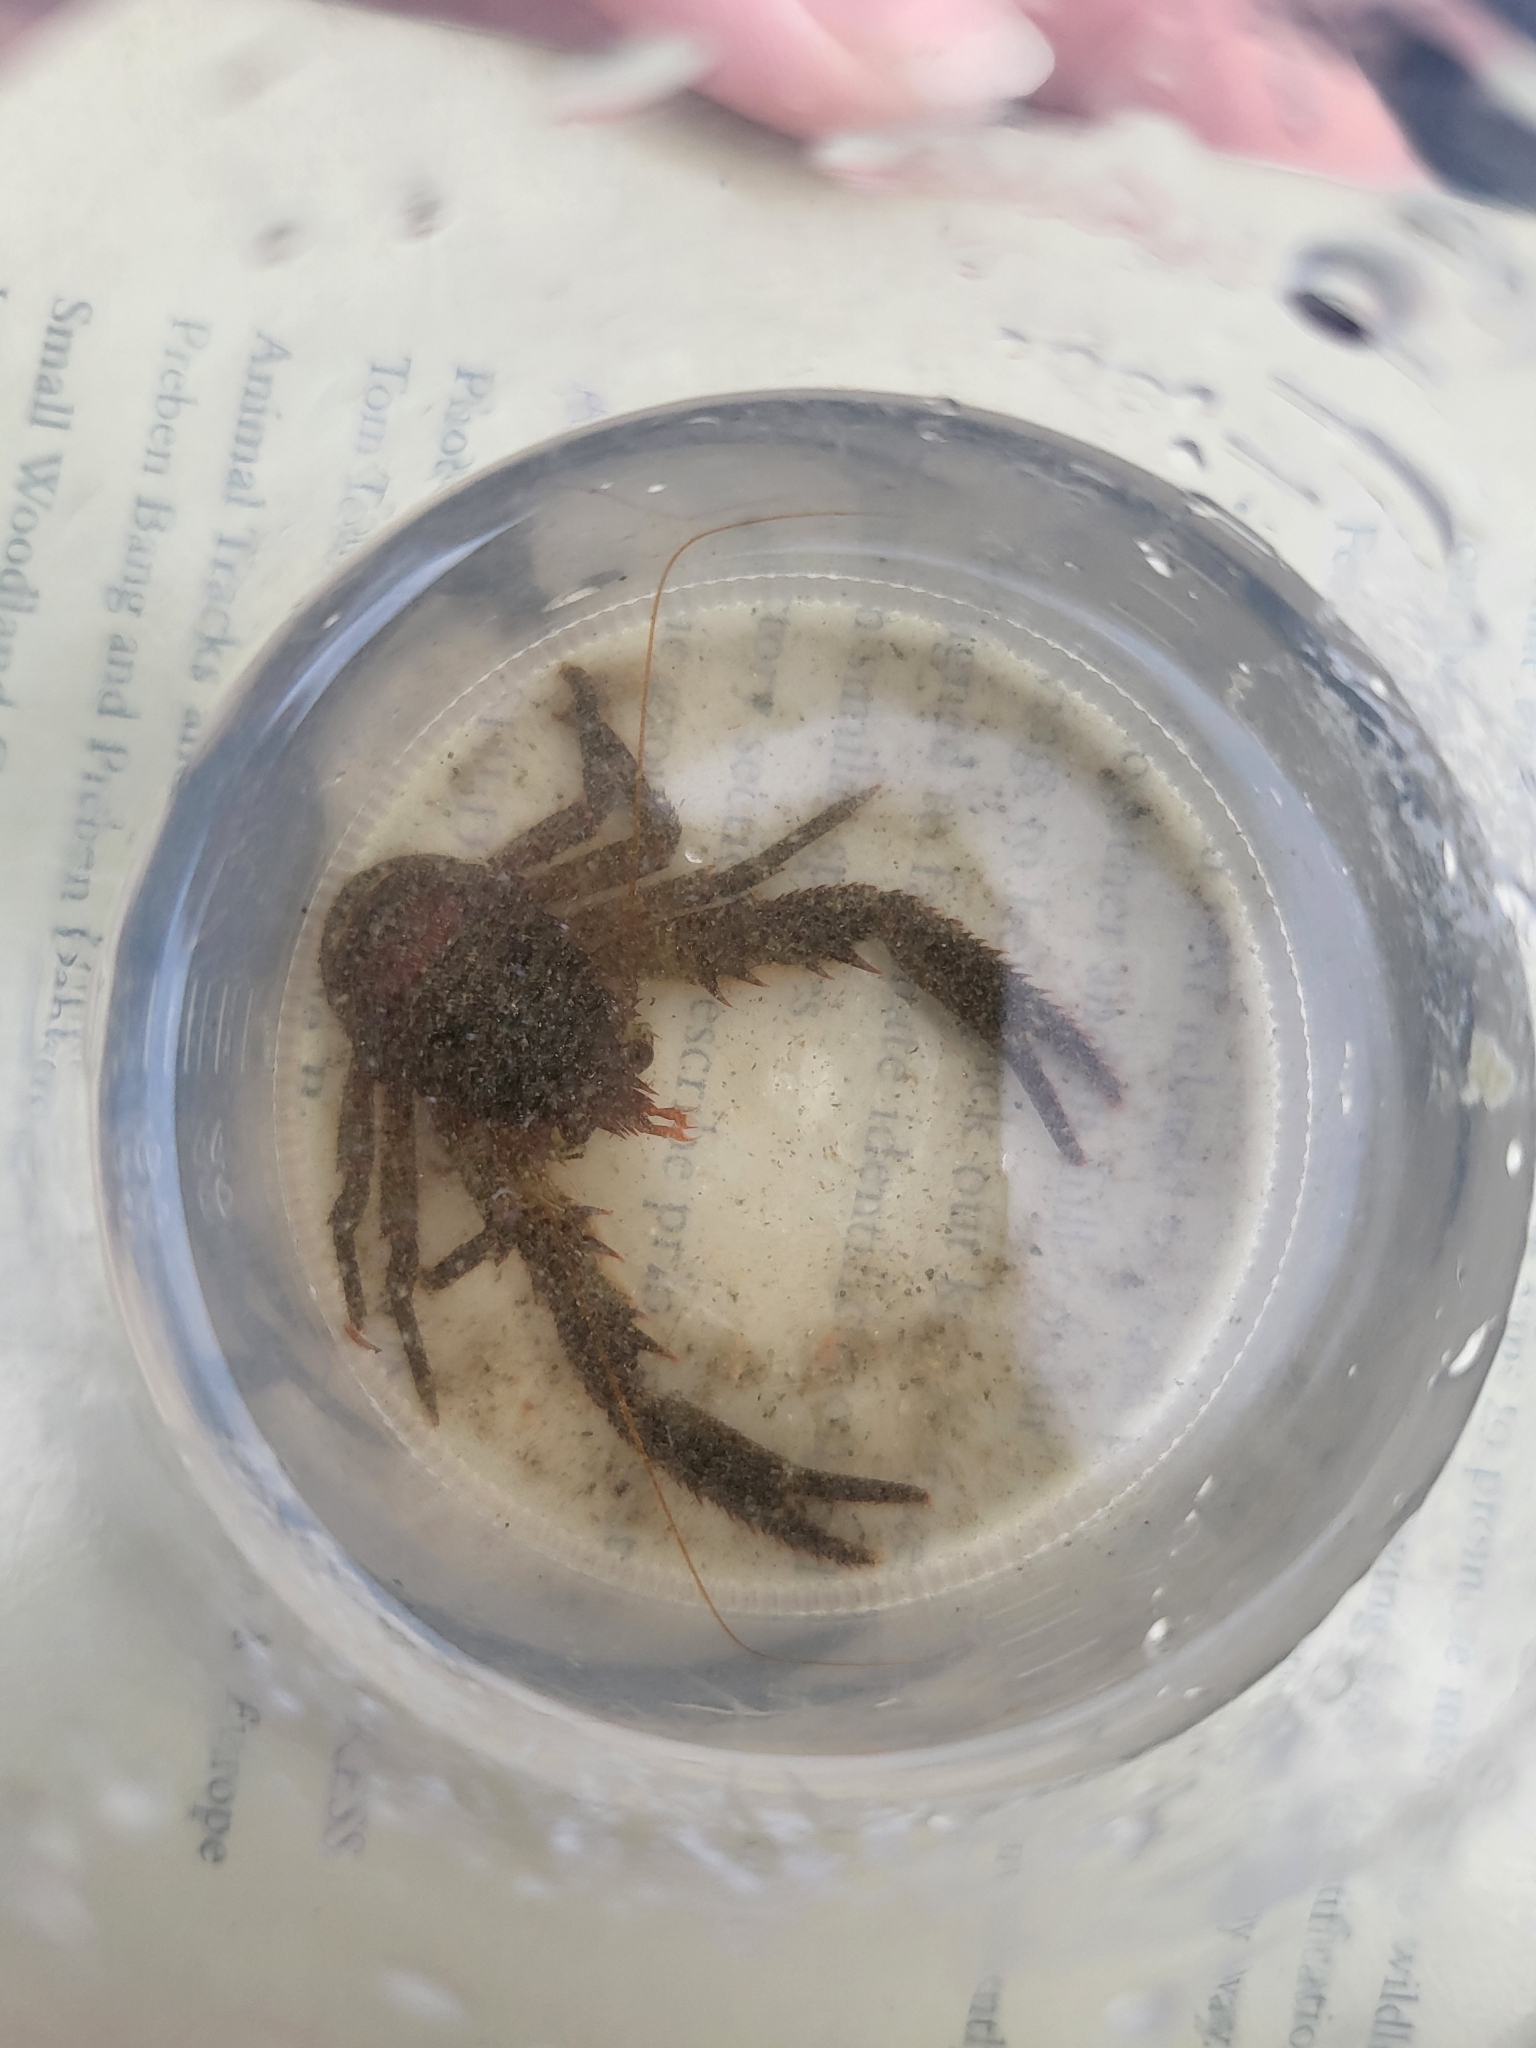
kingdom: Animalia
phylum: Arthropoda
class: Malacostraca
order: Decapoda
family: Galatheidae
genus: Galathea
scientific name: Galathea squamifera
